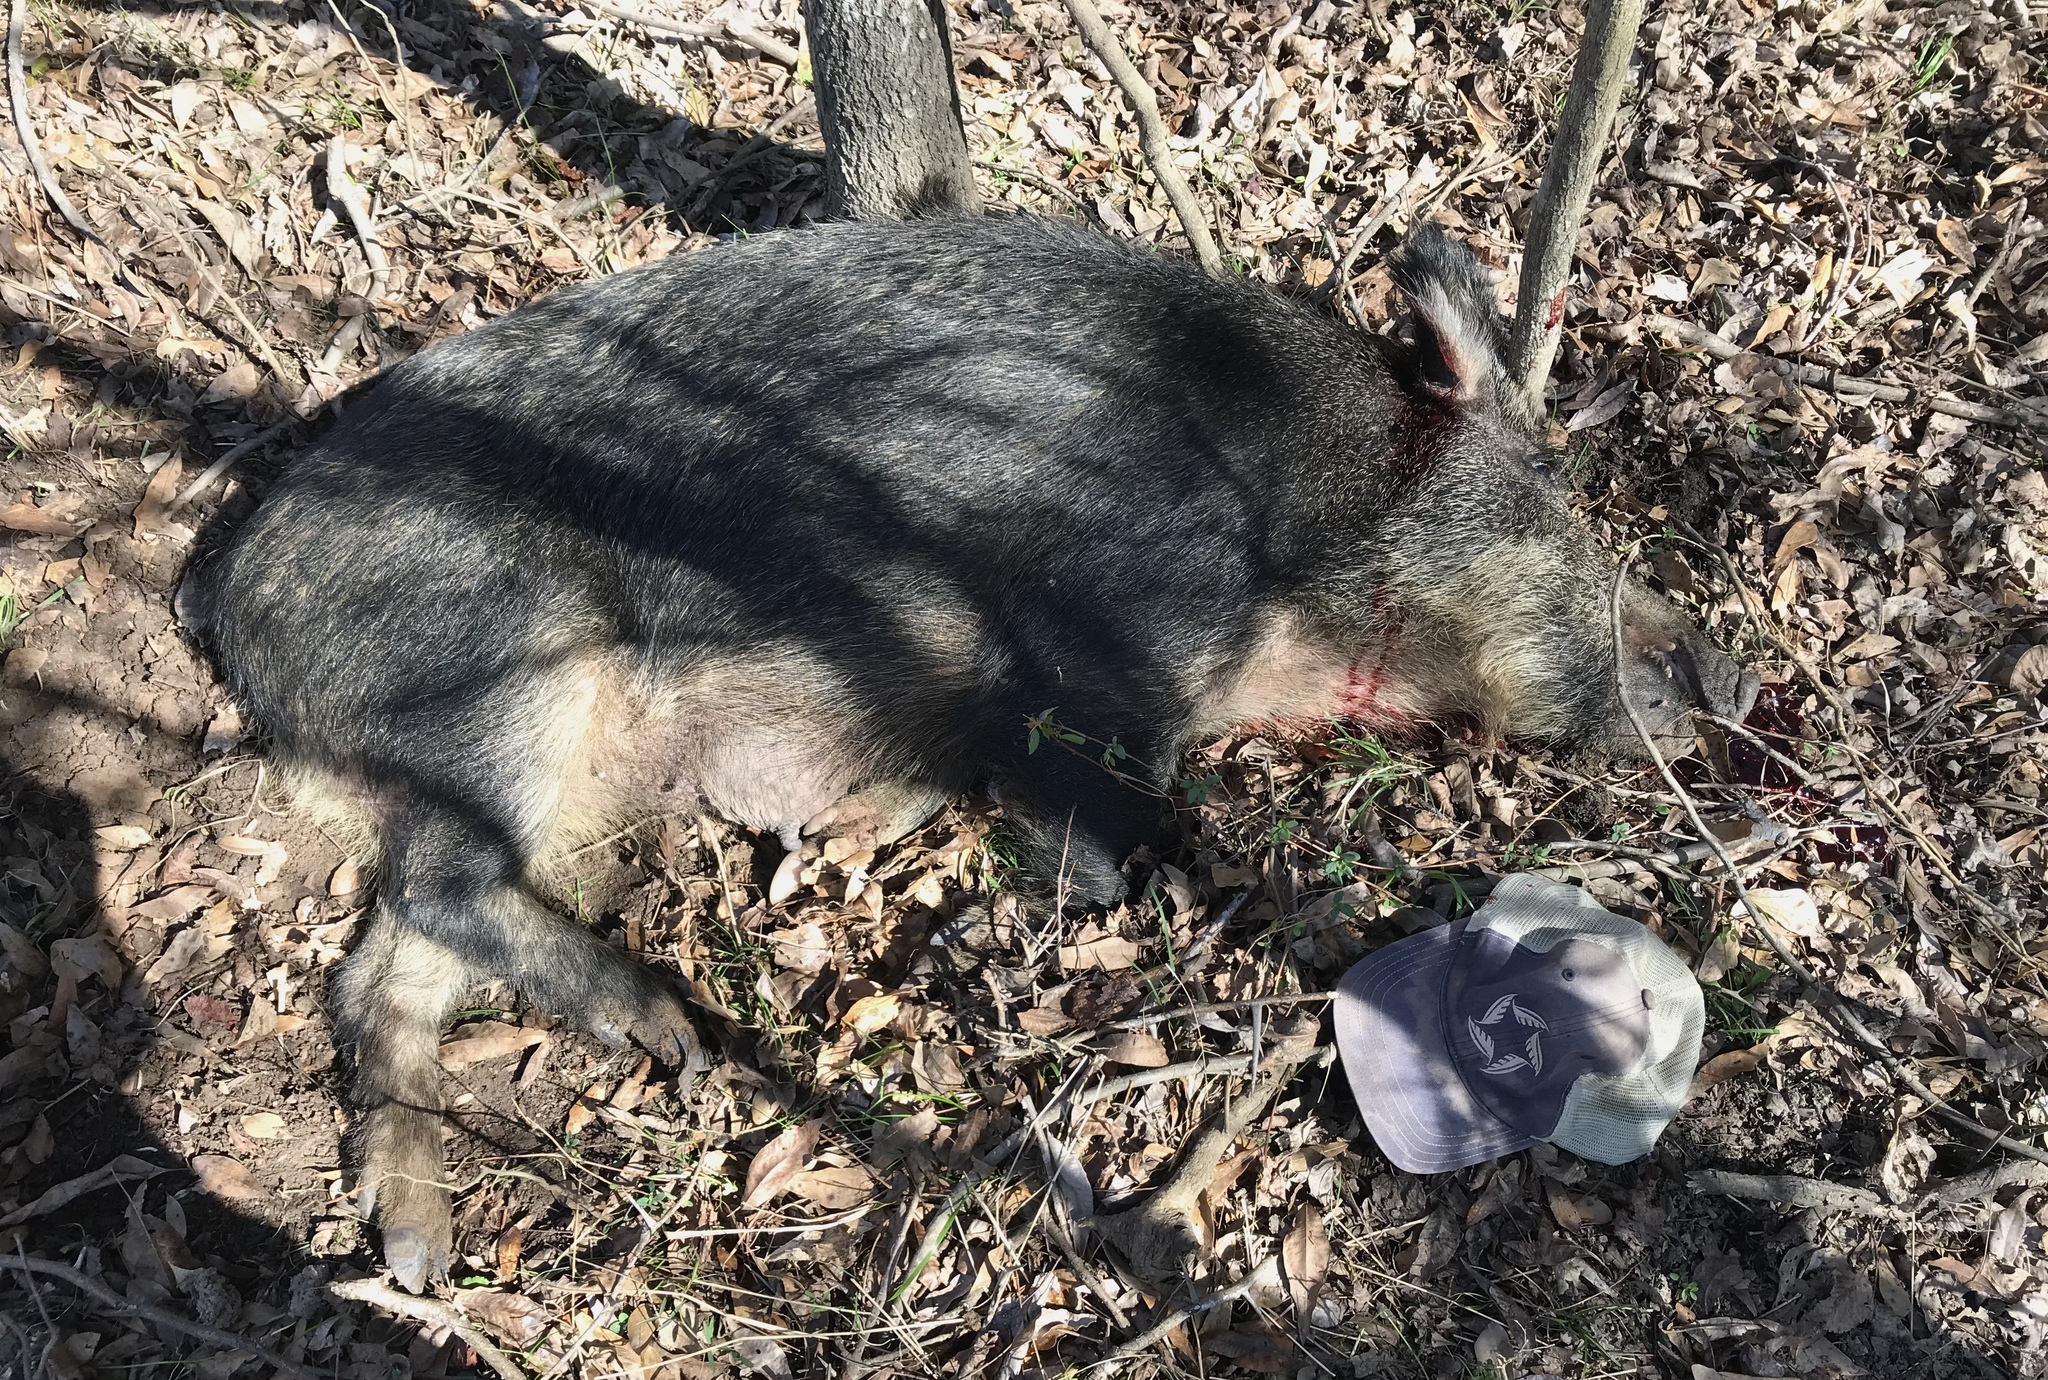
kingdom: Animalia
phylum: Chordata
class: Mammalia
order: Artiodactyla
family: Suidae
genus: Sus
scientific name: Sus scrofa
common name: Wild boar
